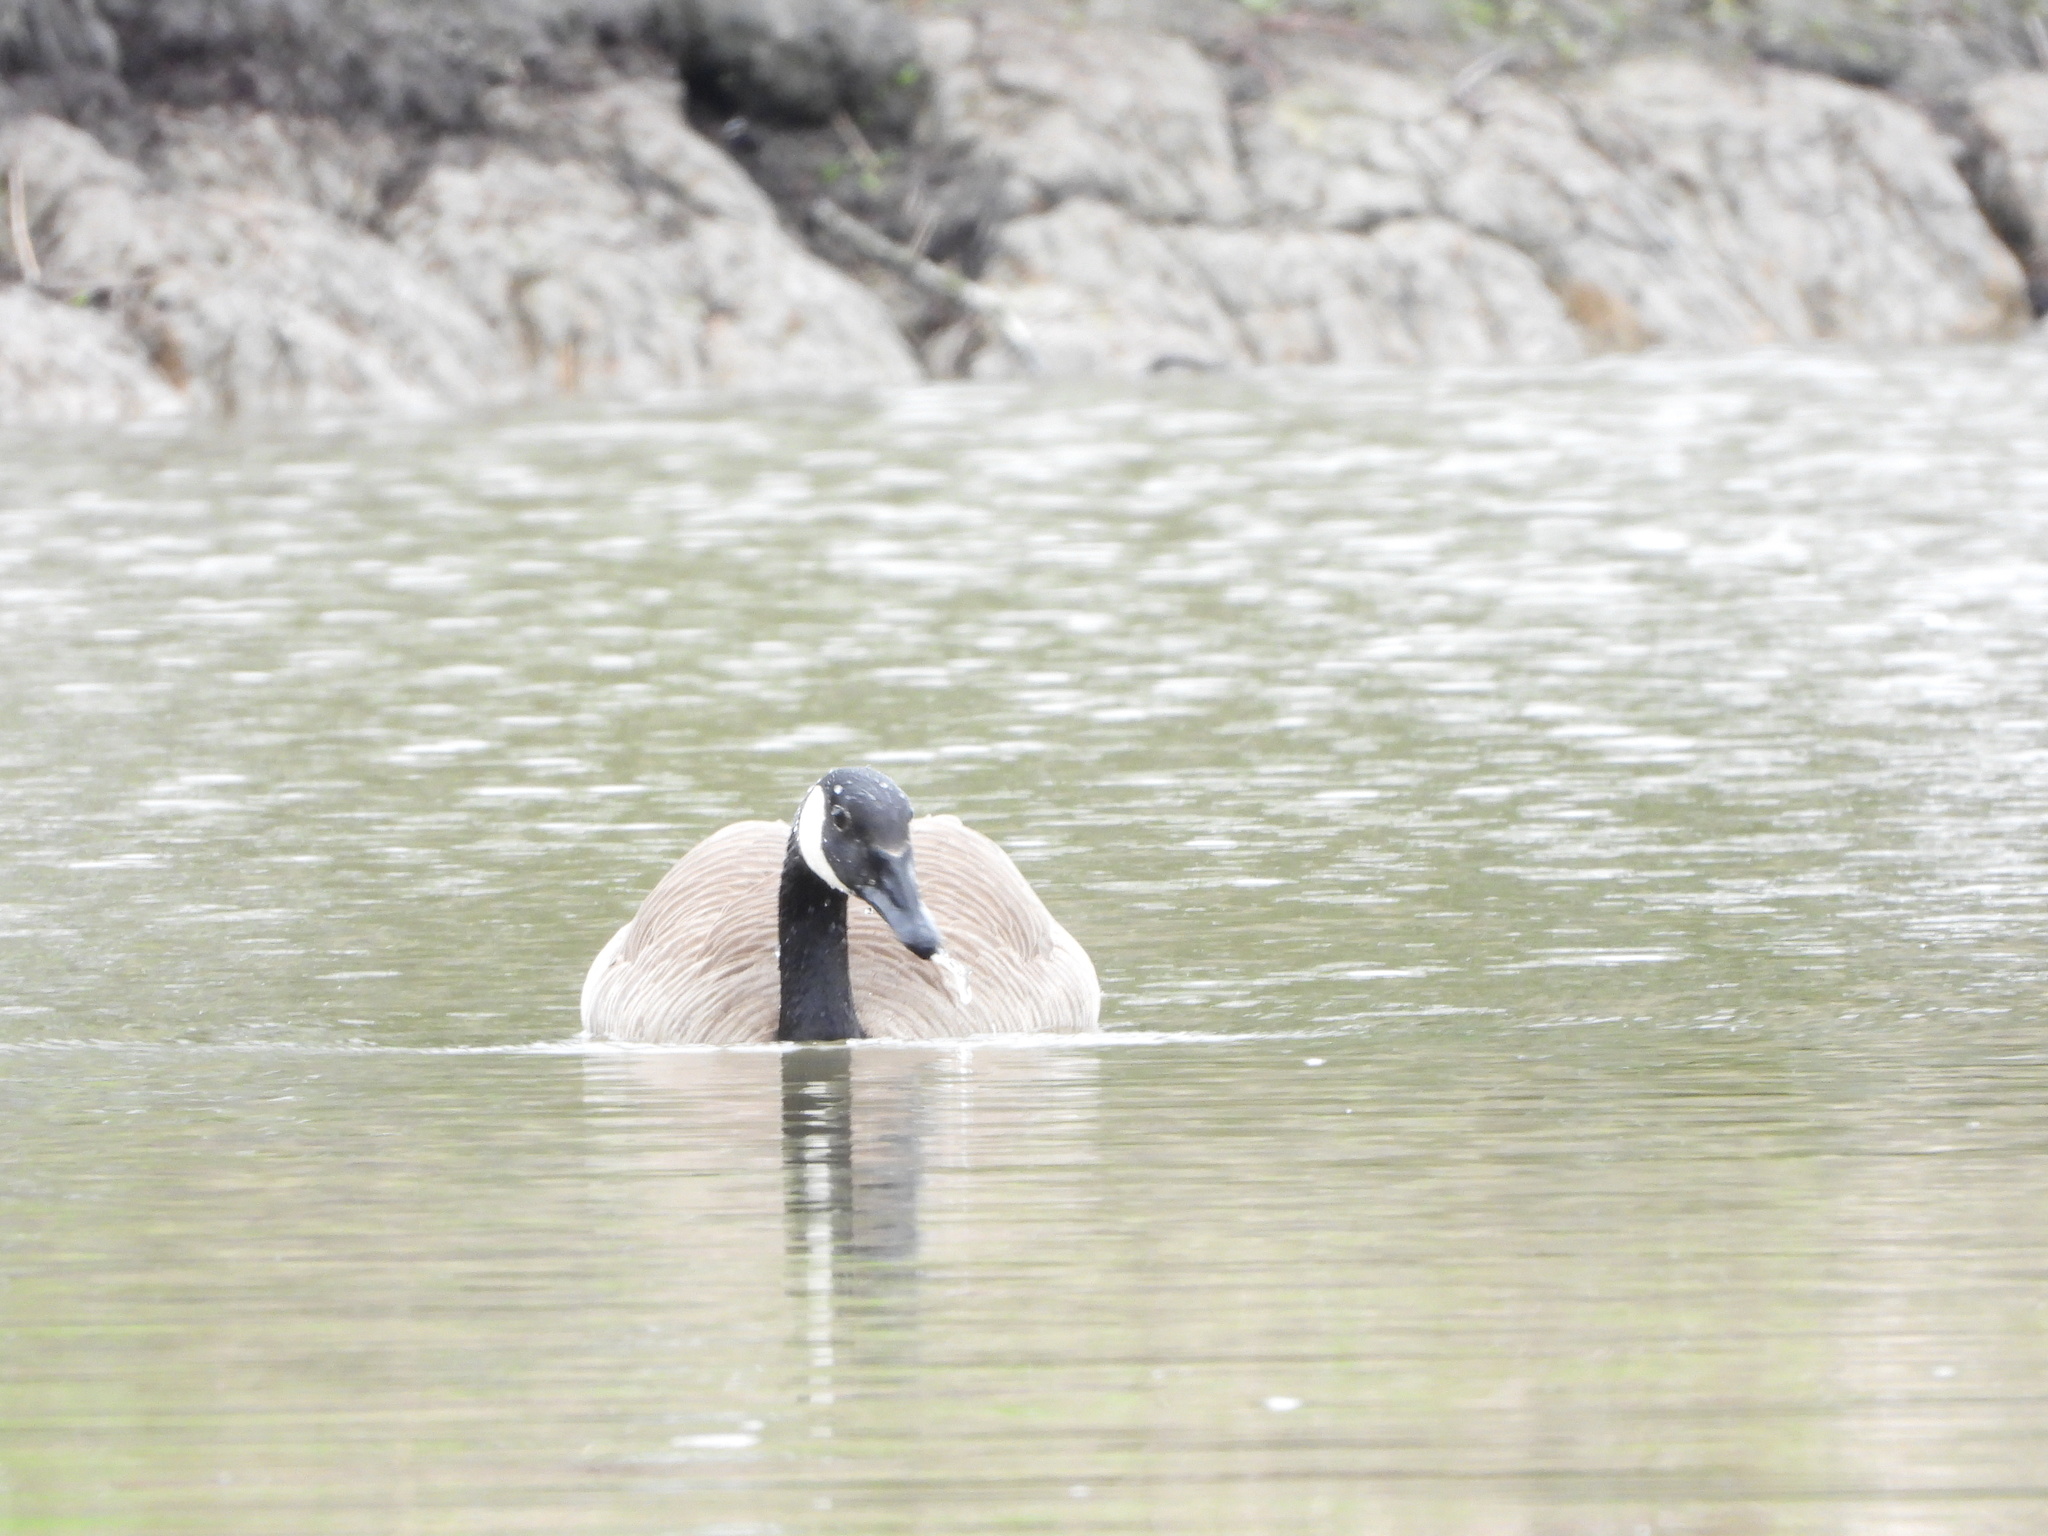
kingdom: Animalia
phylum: Chordata
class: Aves
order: Anseriformes
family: Anatidae
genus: Branta
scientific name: Branta canadensis
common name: Canada goose
